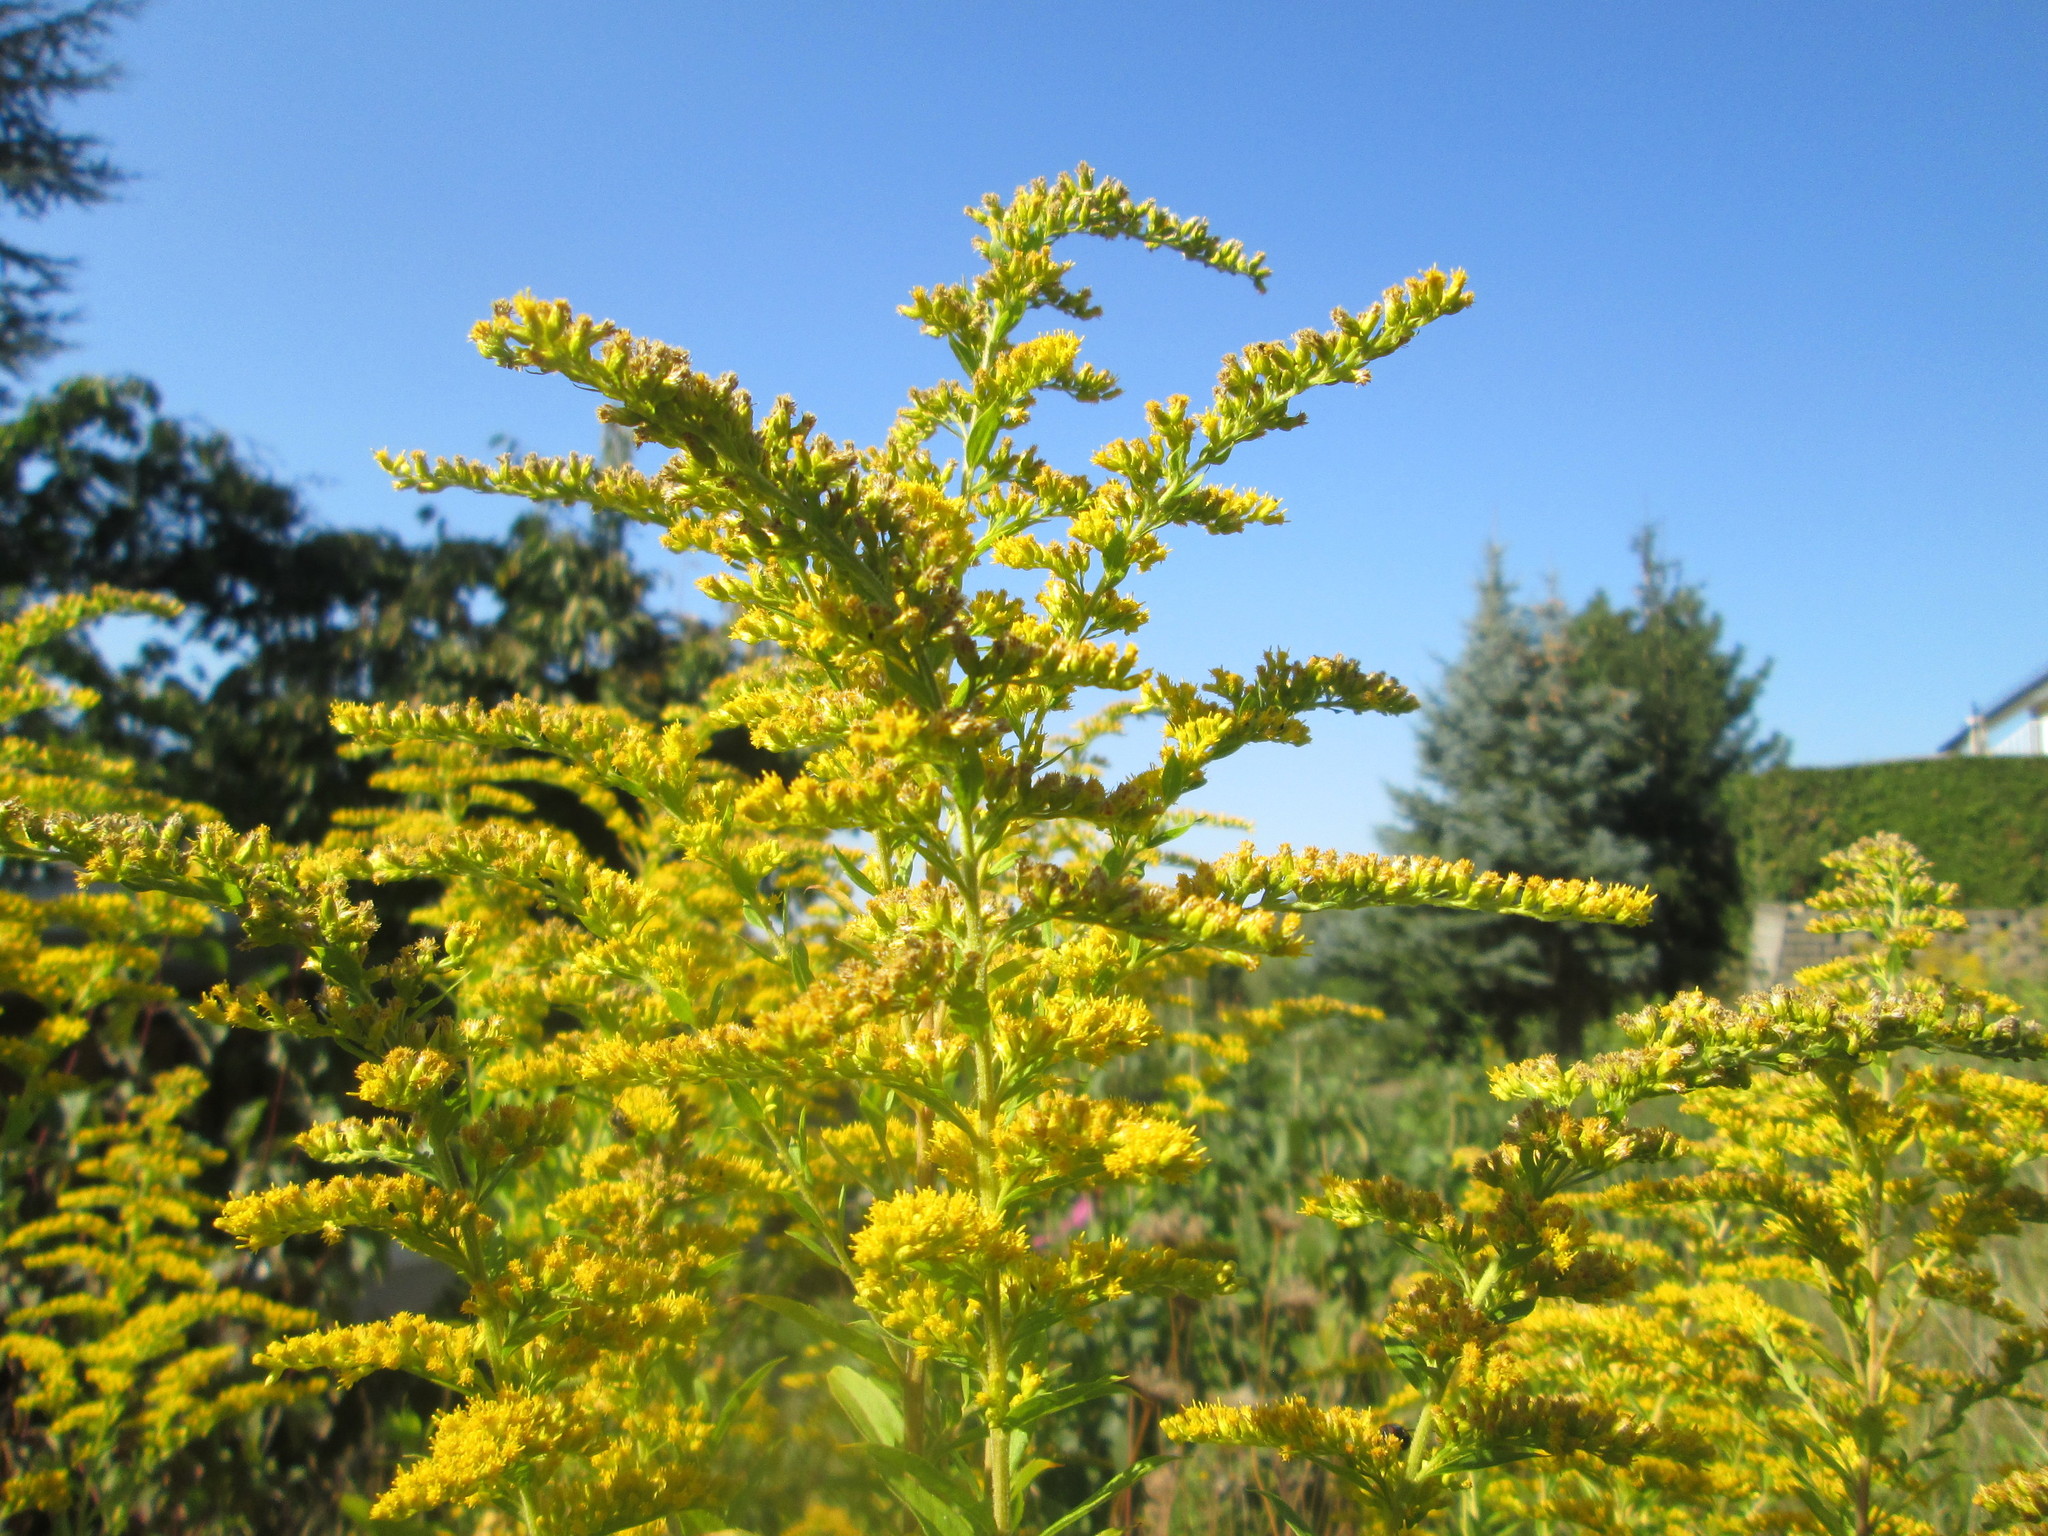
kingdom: Plantae
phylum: Tracheophyta
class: Magnoliopsida
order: Asterales
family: Asteraceae
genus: Solidago
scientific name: Solidago canadensis
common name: Canada goldenrod
